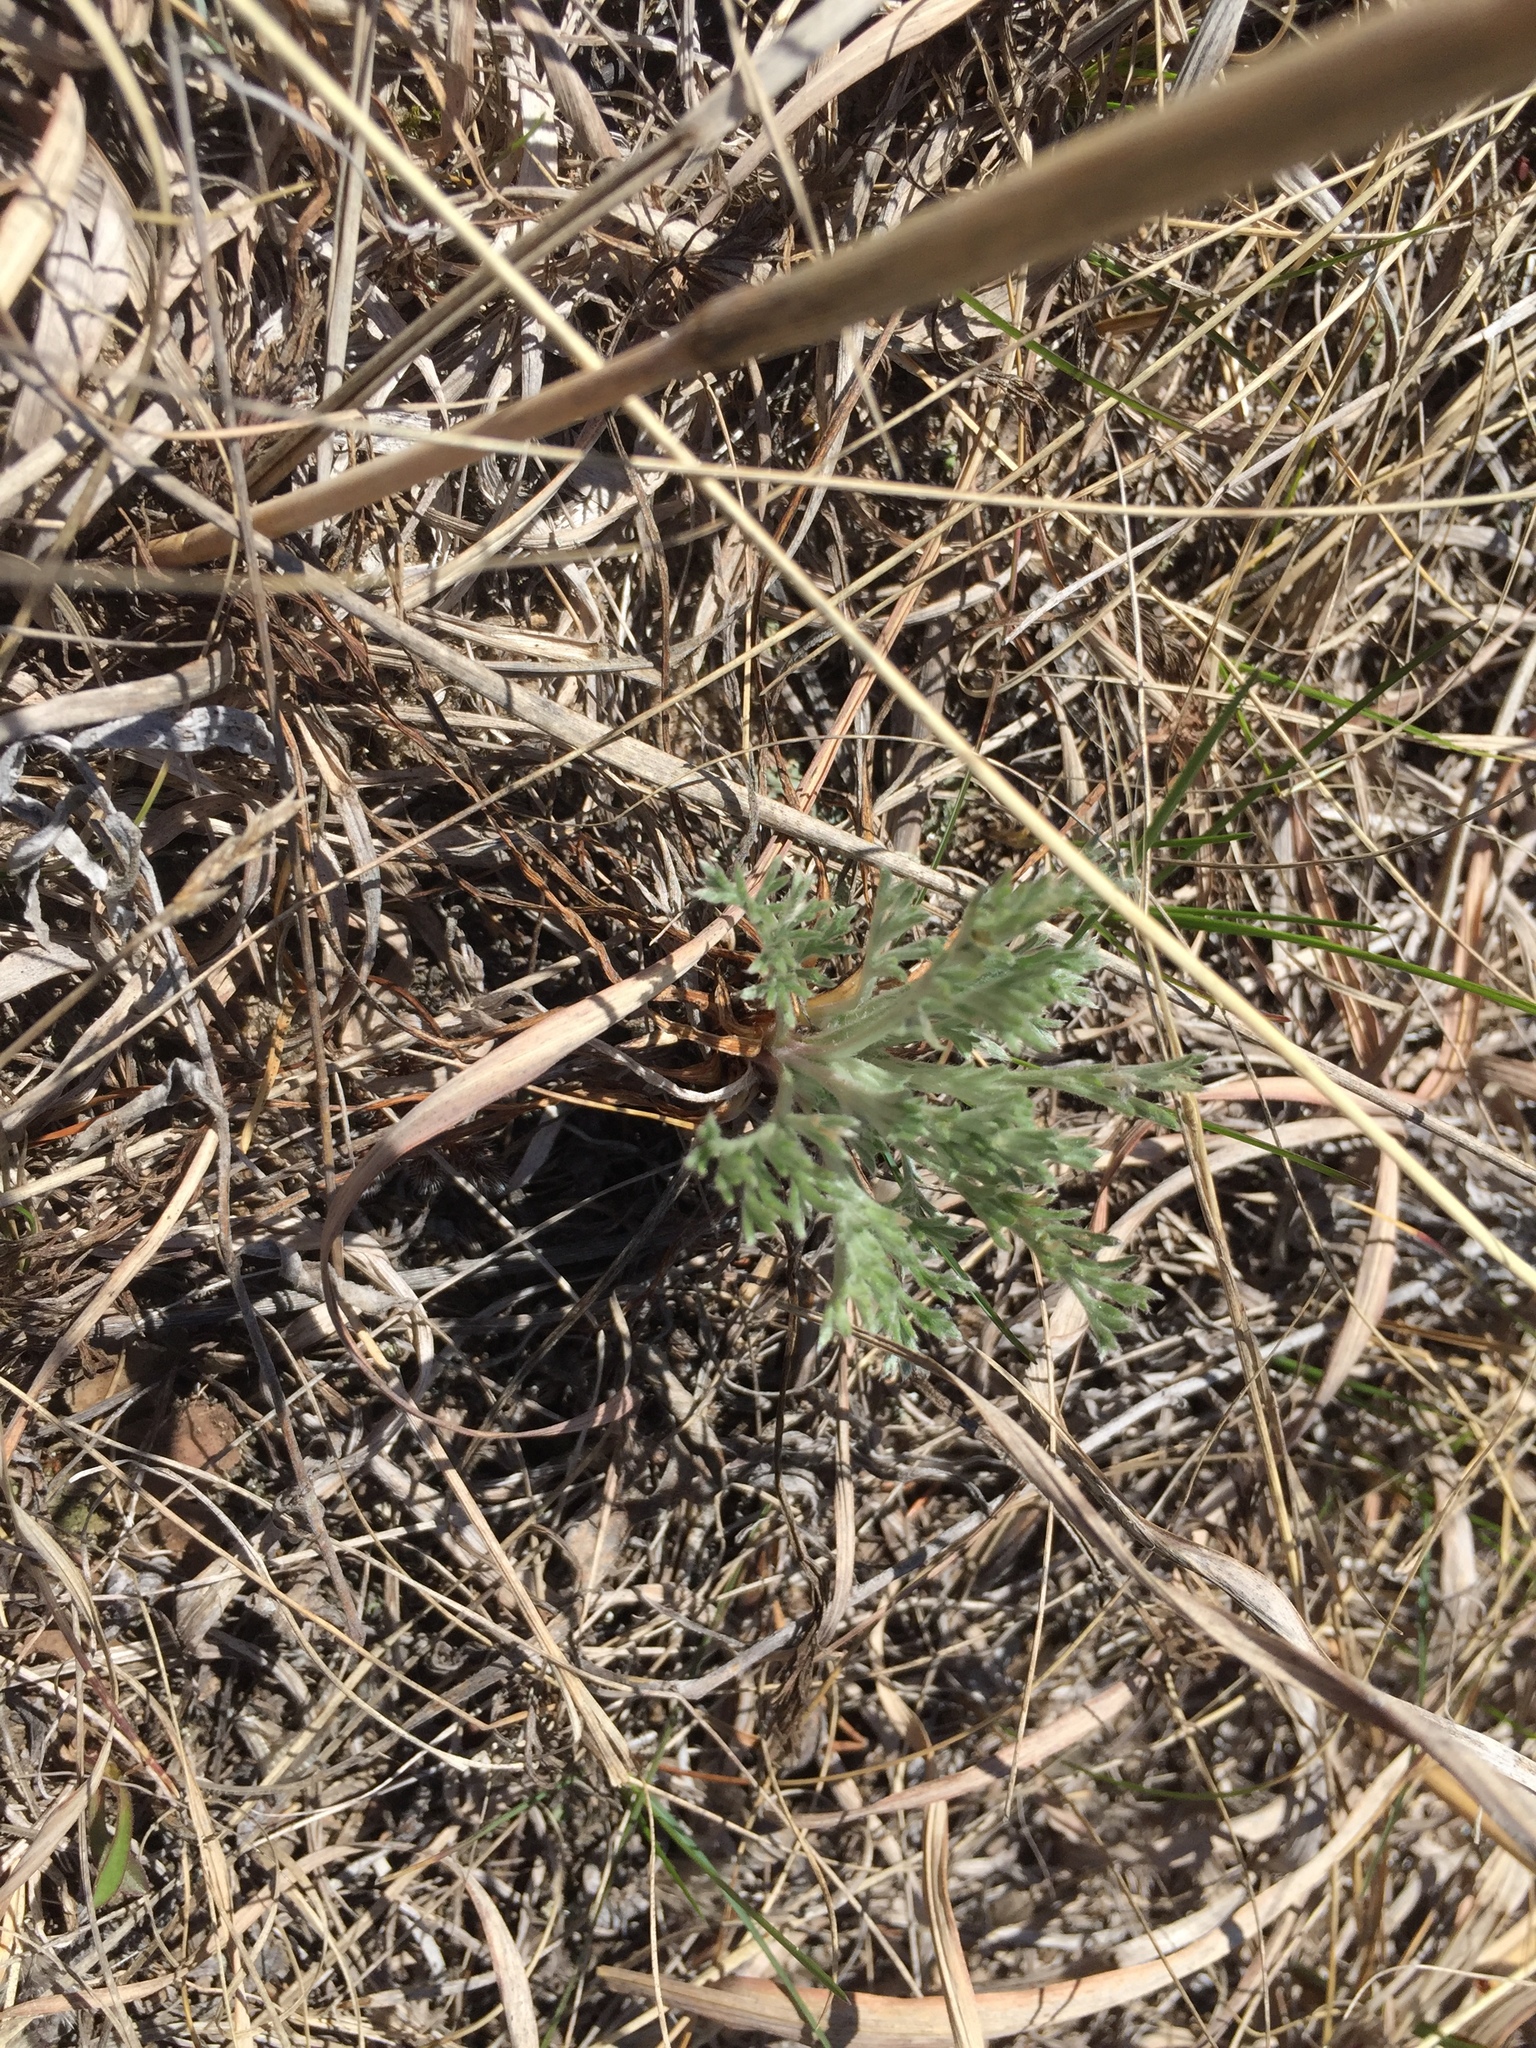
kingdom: Plantae
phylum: Tracheophyta
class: Magnoliopsida
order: Asterales
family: Asteraceae
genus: Artemisia
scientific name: Artemisia campestris
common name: Field wormwood
